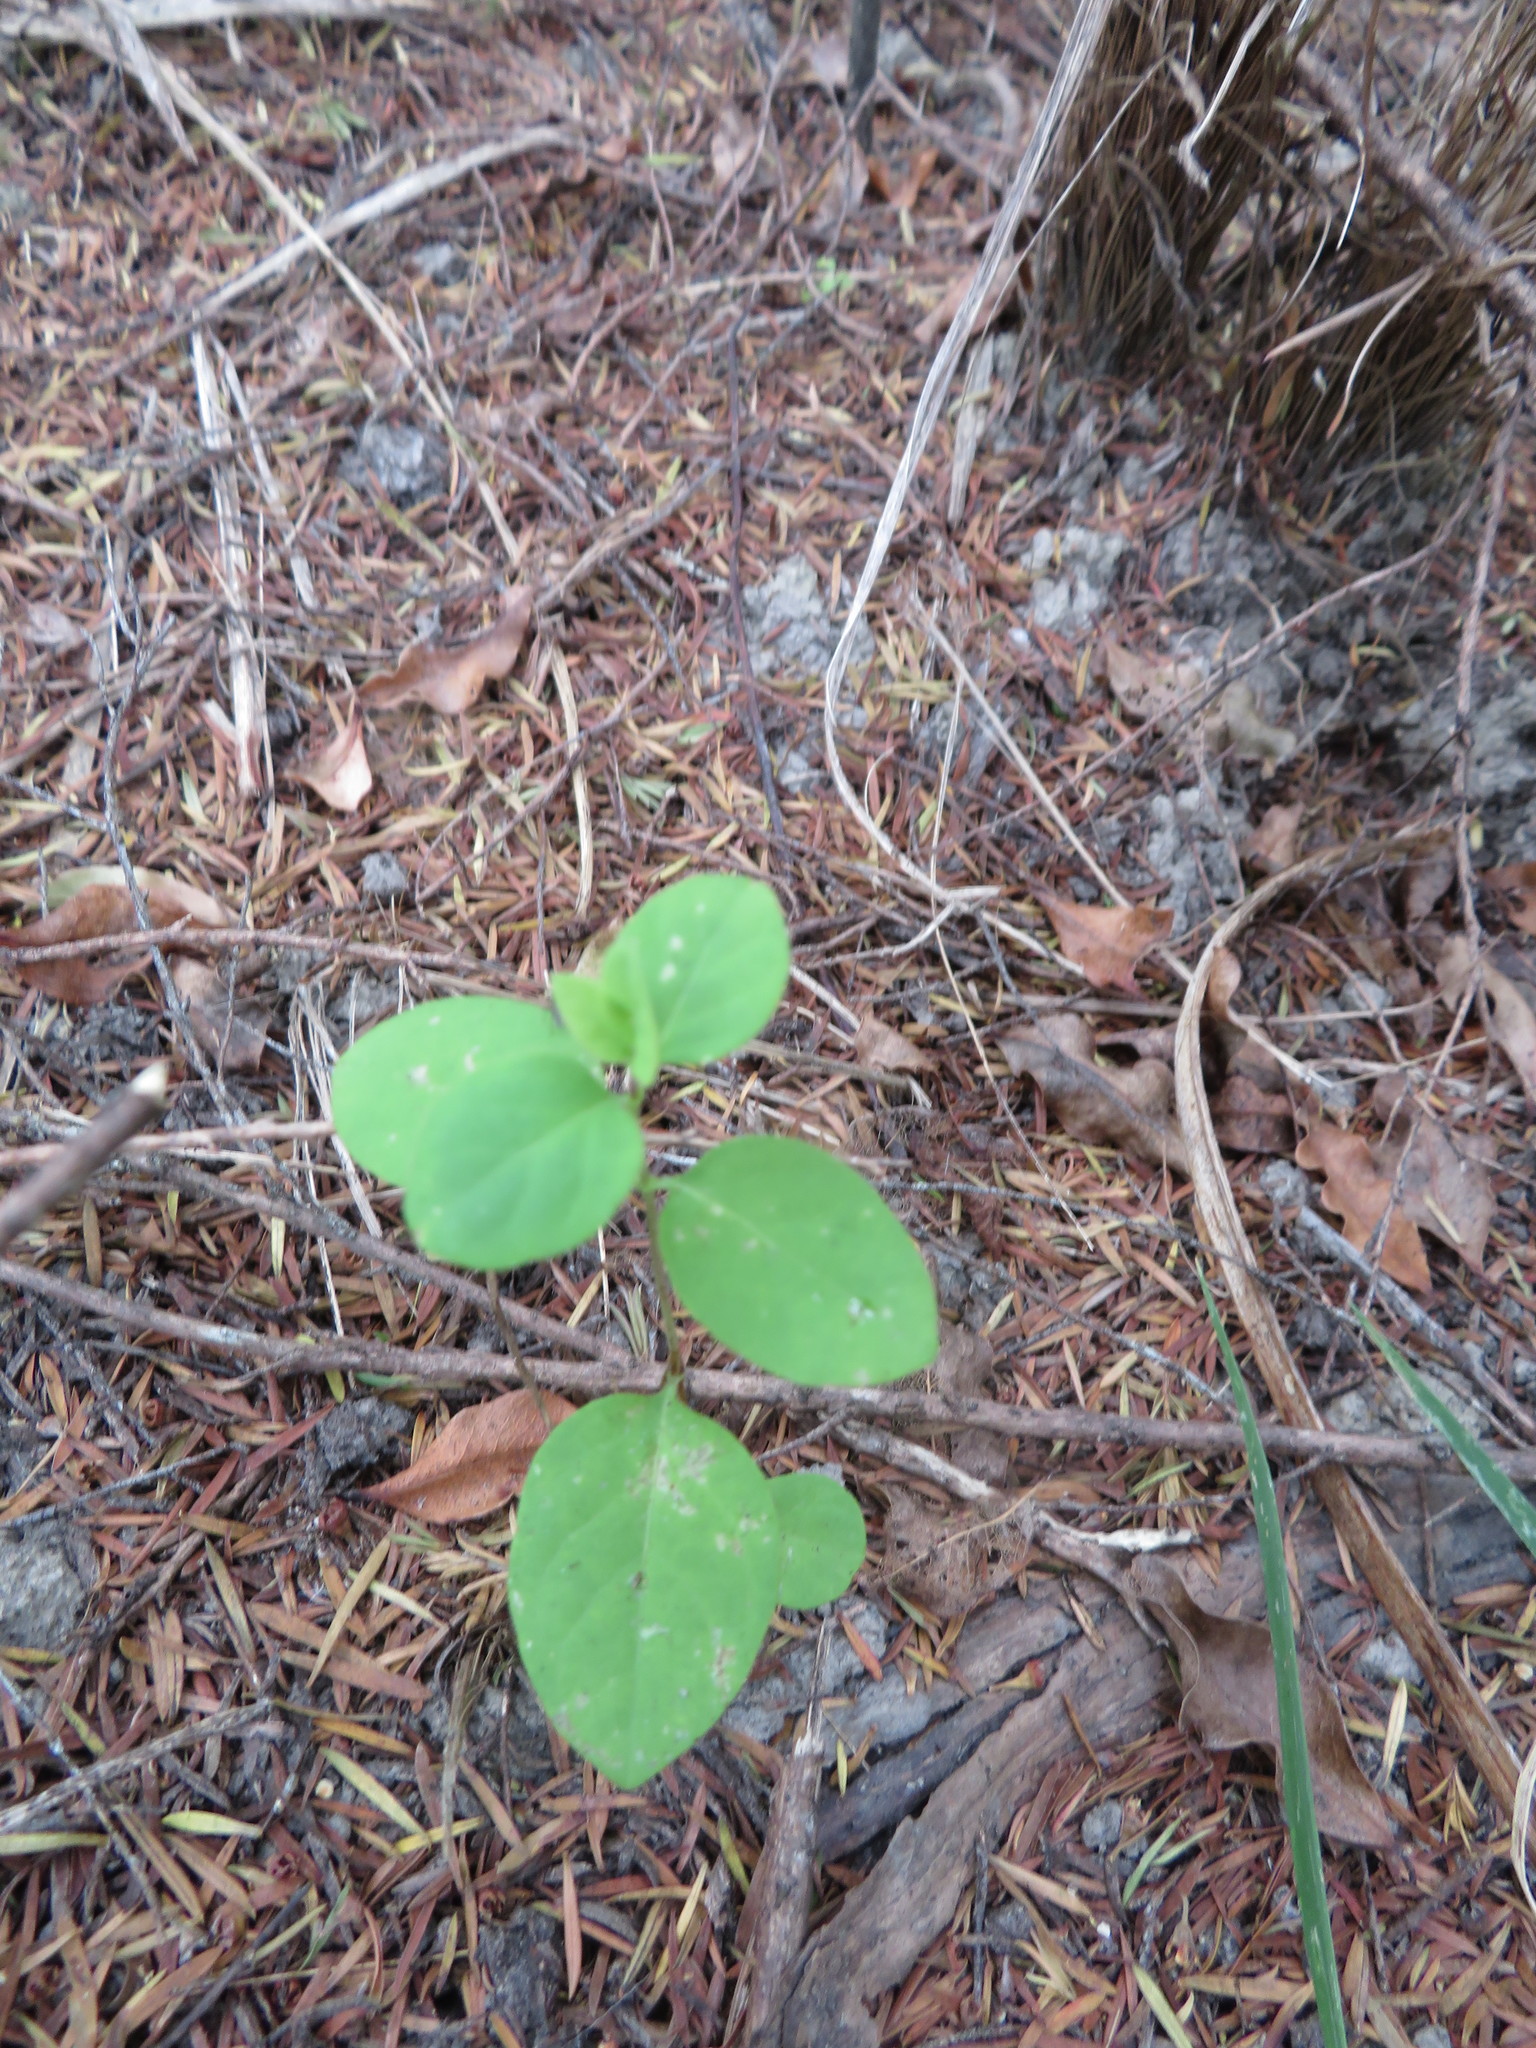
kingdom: Plantae
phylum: Tracheophyta
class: Magnoliopsida
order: Dipsacales
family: Caprifoliaceae
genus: Lonicera
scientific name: Lonicera japonica
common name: Japanese honeysuckle
